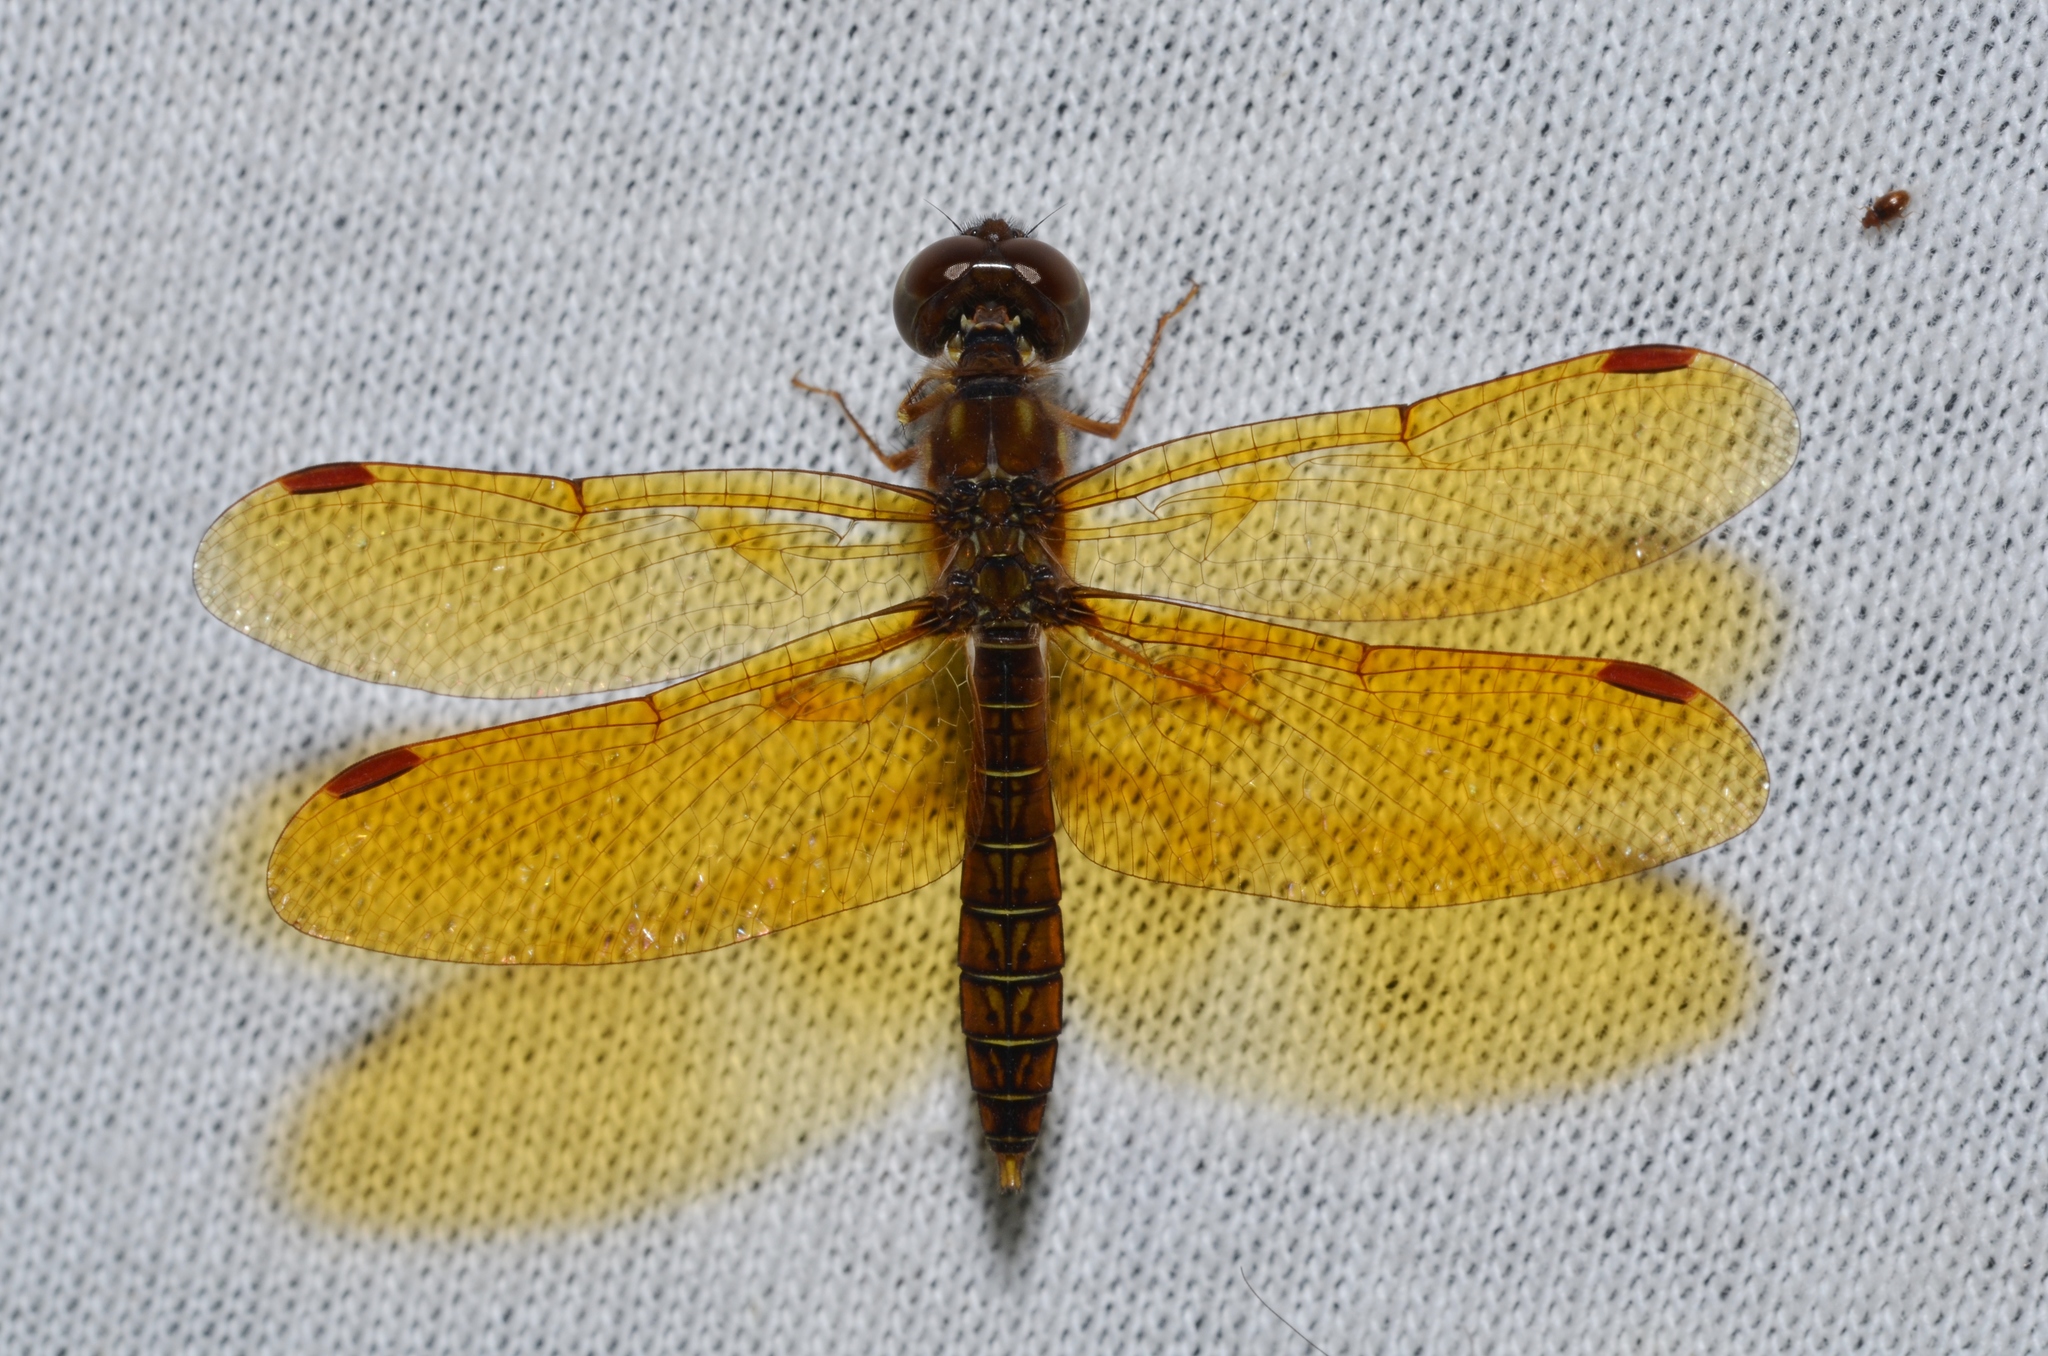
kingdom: Animalia
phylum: Arthropoda
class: Insecta
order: Odonata
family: Libellulidae
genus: Perithemis
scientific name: Perithemis tenera
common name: Eastern amberwing
